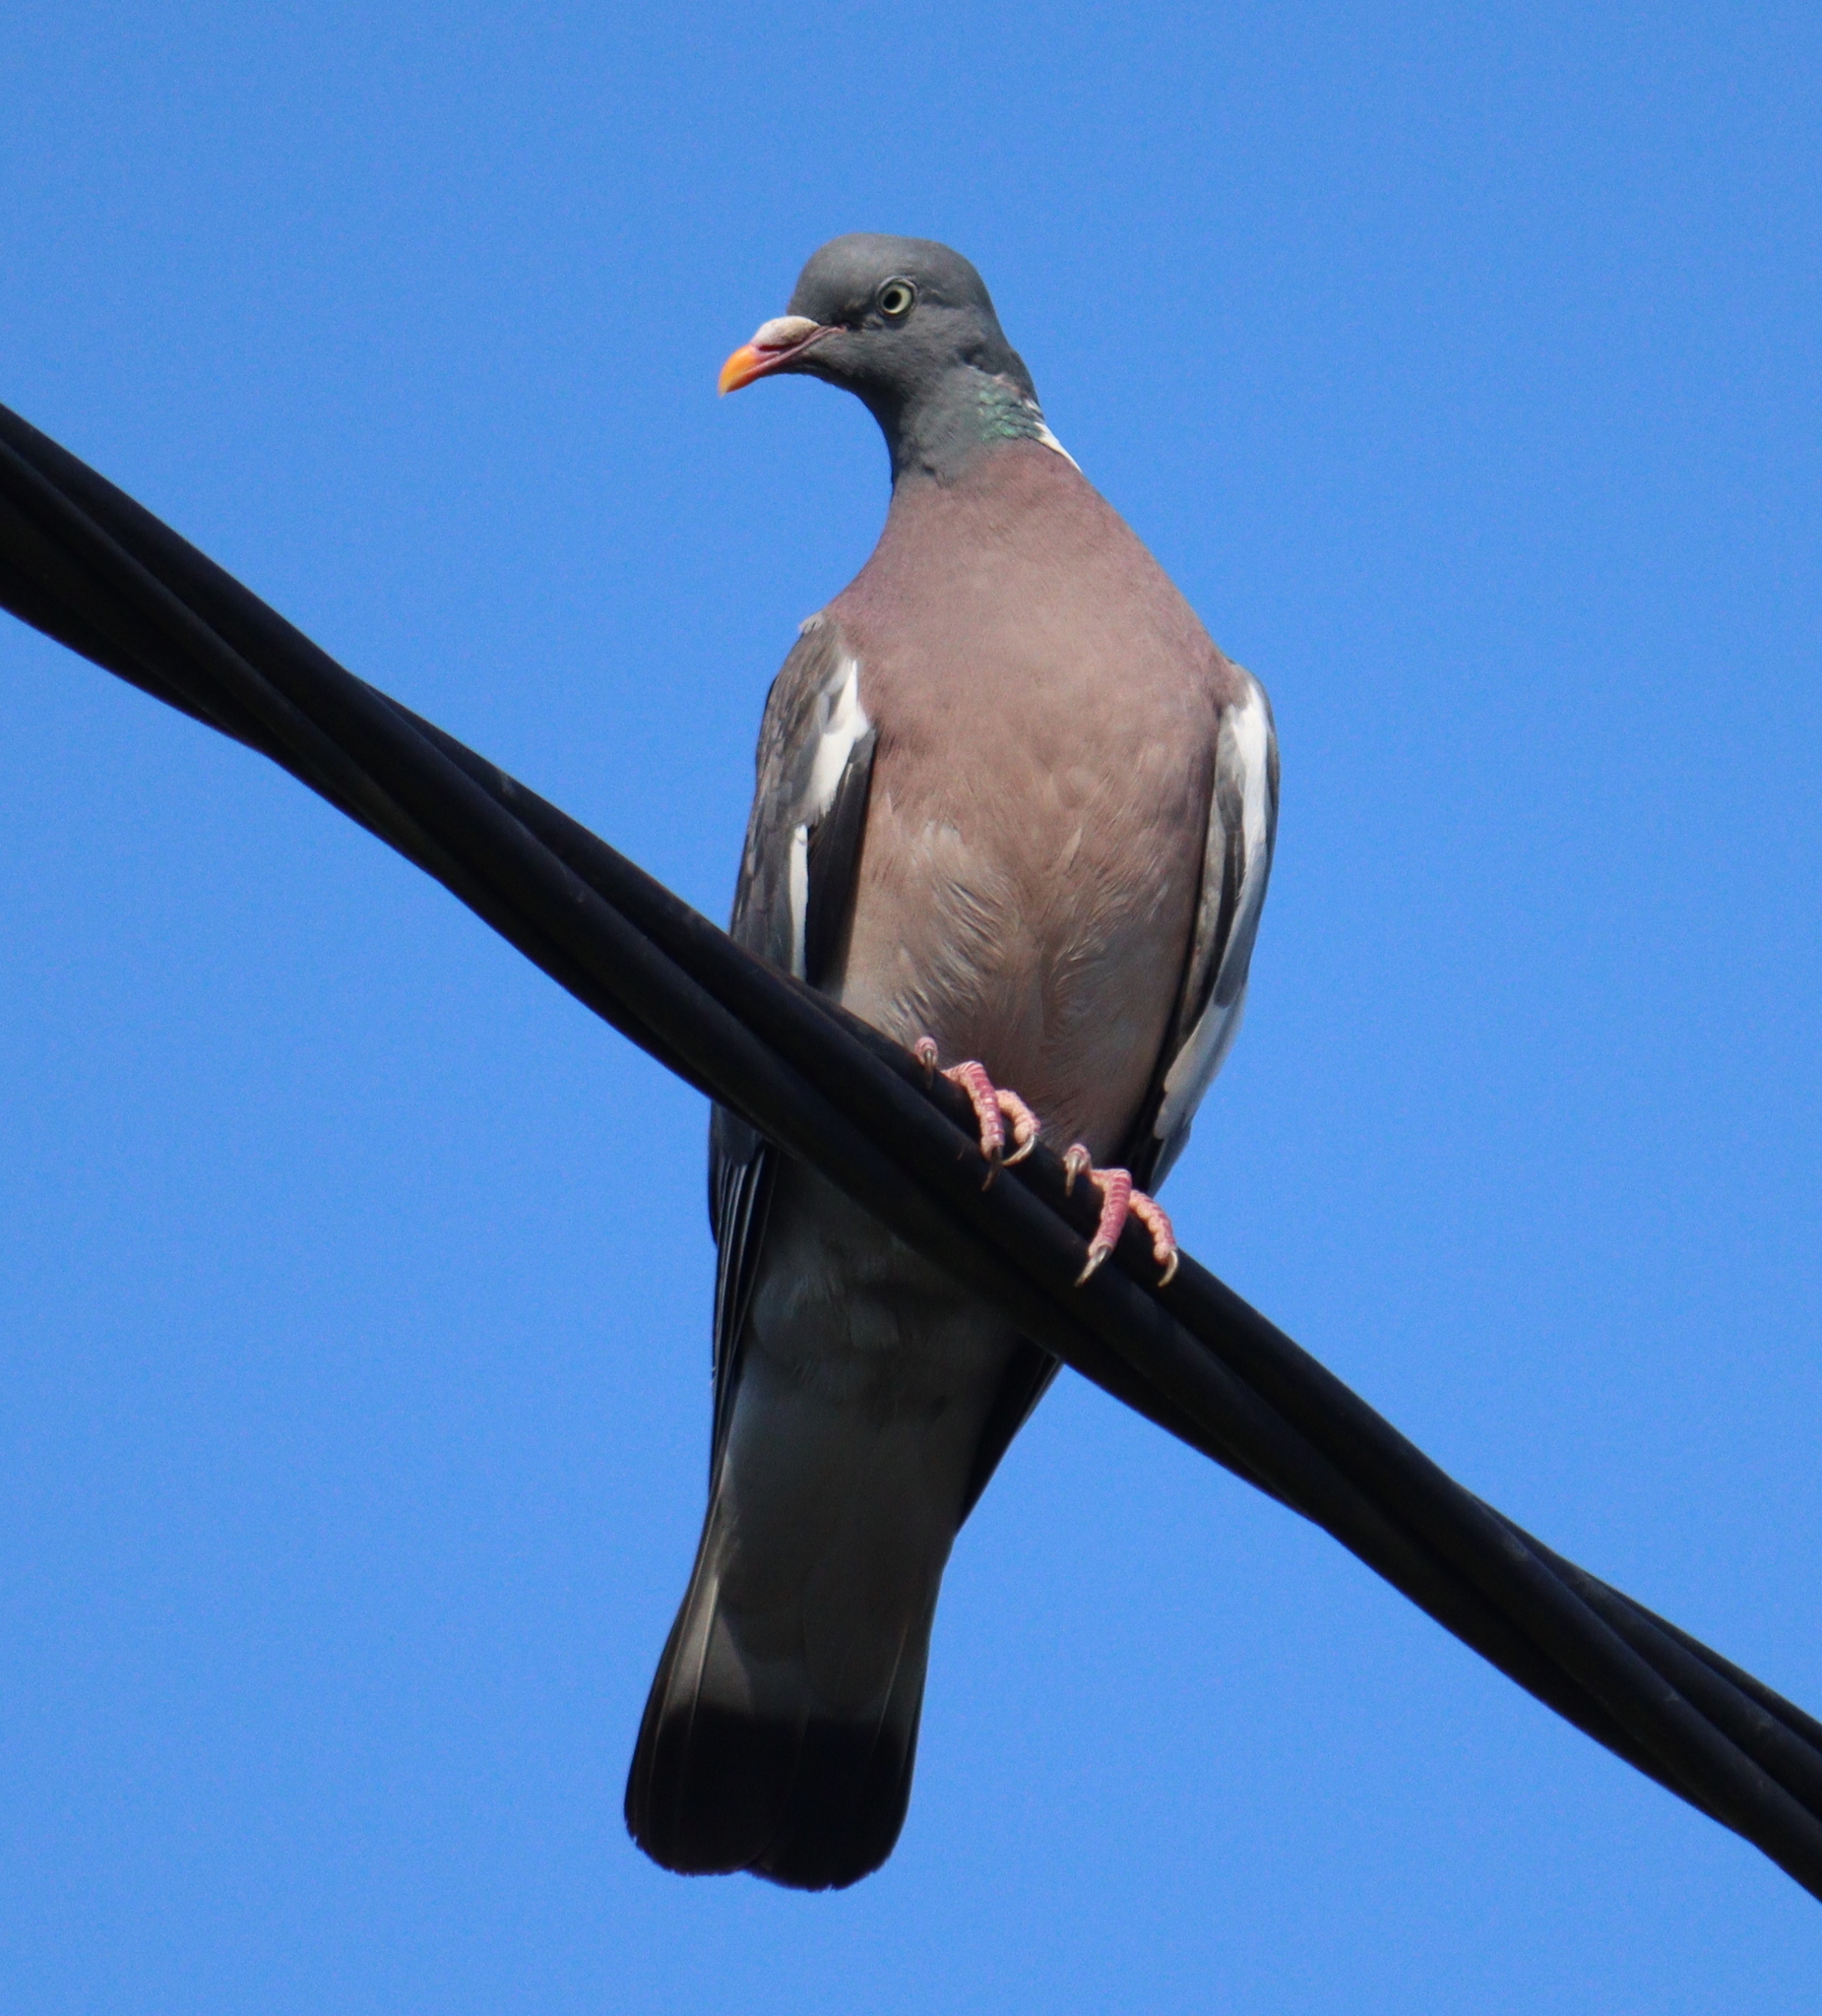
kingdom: Animalia
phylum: Chordata
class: Aves
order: Columbiformes
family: Columbidae
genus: Columba
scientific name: Columba palumbus
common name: Common wood pigeon
